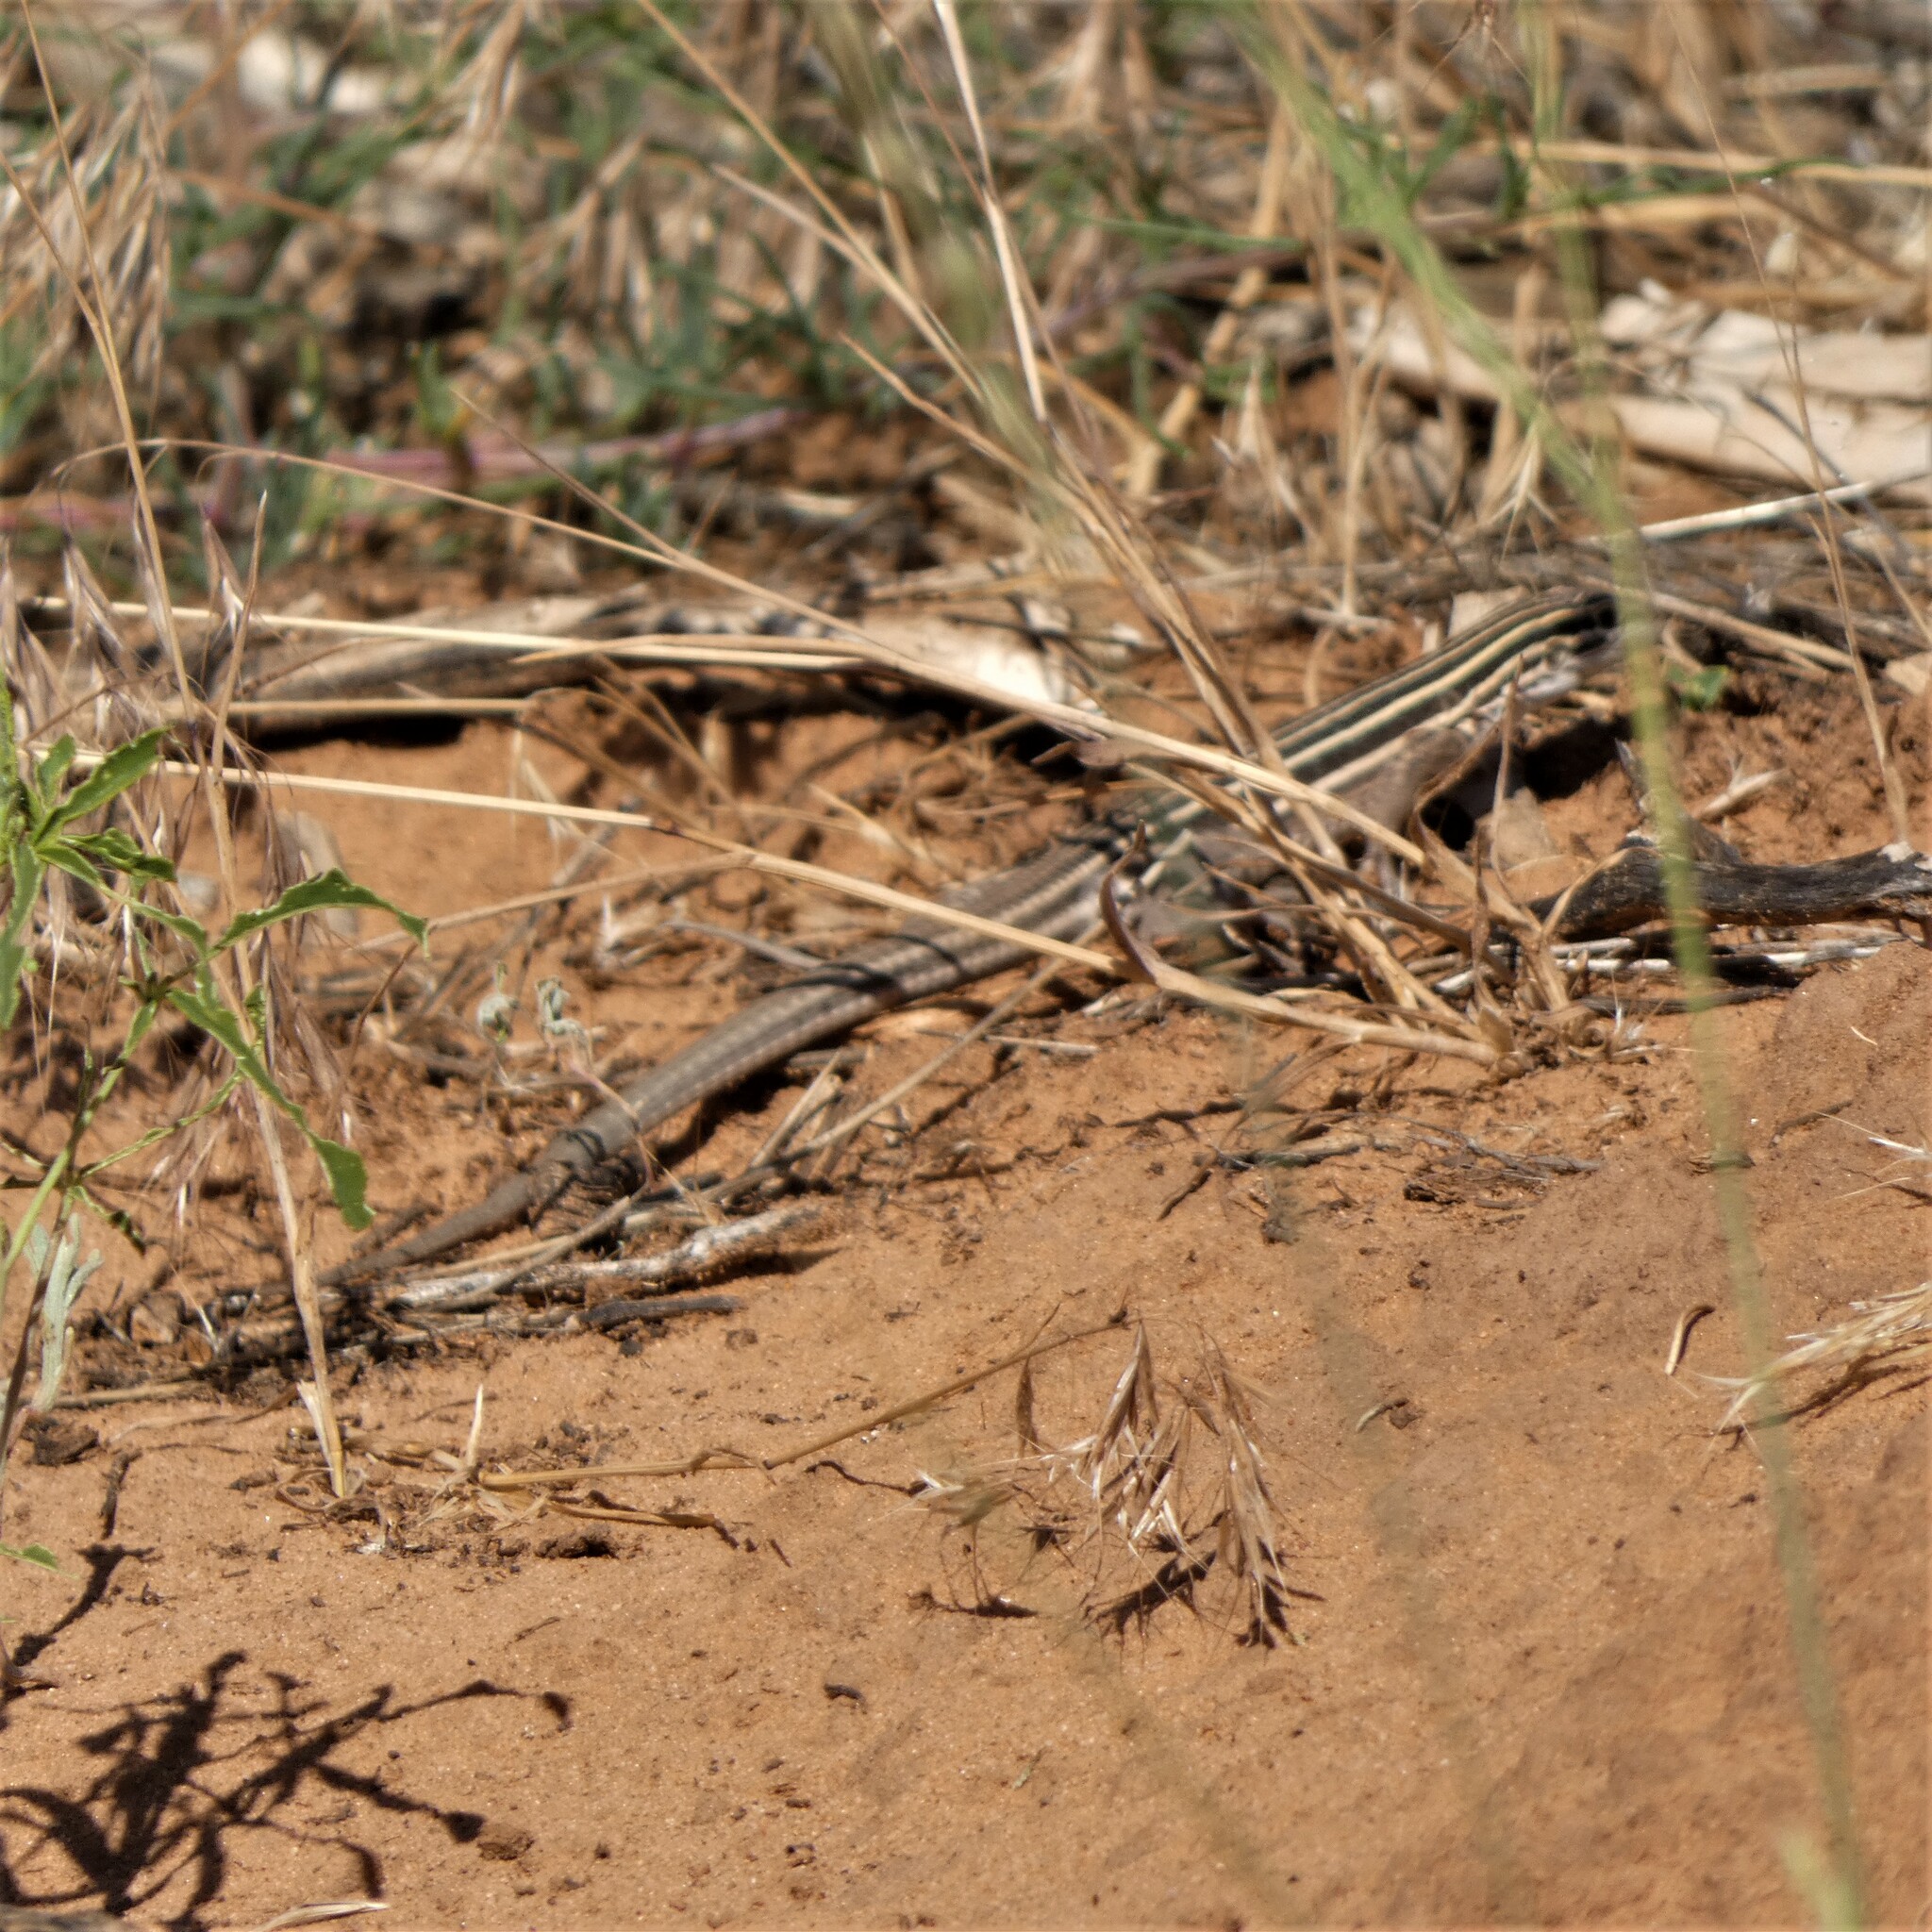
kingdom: Animalia
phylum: Chordata
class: Squamata
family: Teiidae
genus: Aspidoscelis
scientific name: Aspidoscelis velox
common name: Plateau striped whiptail
